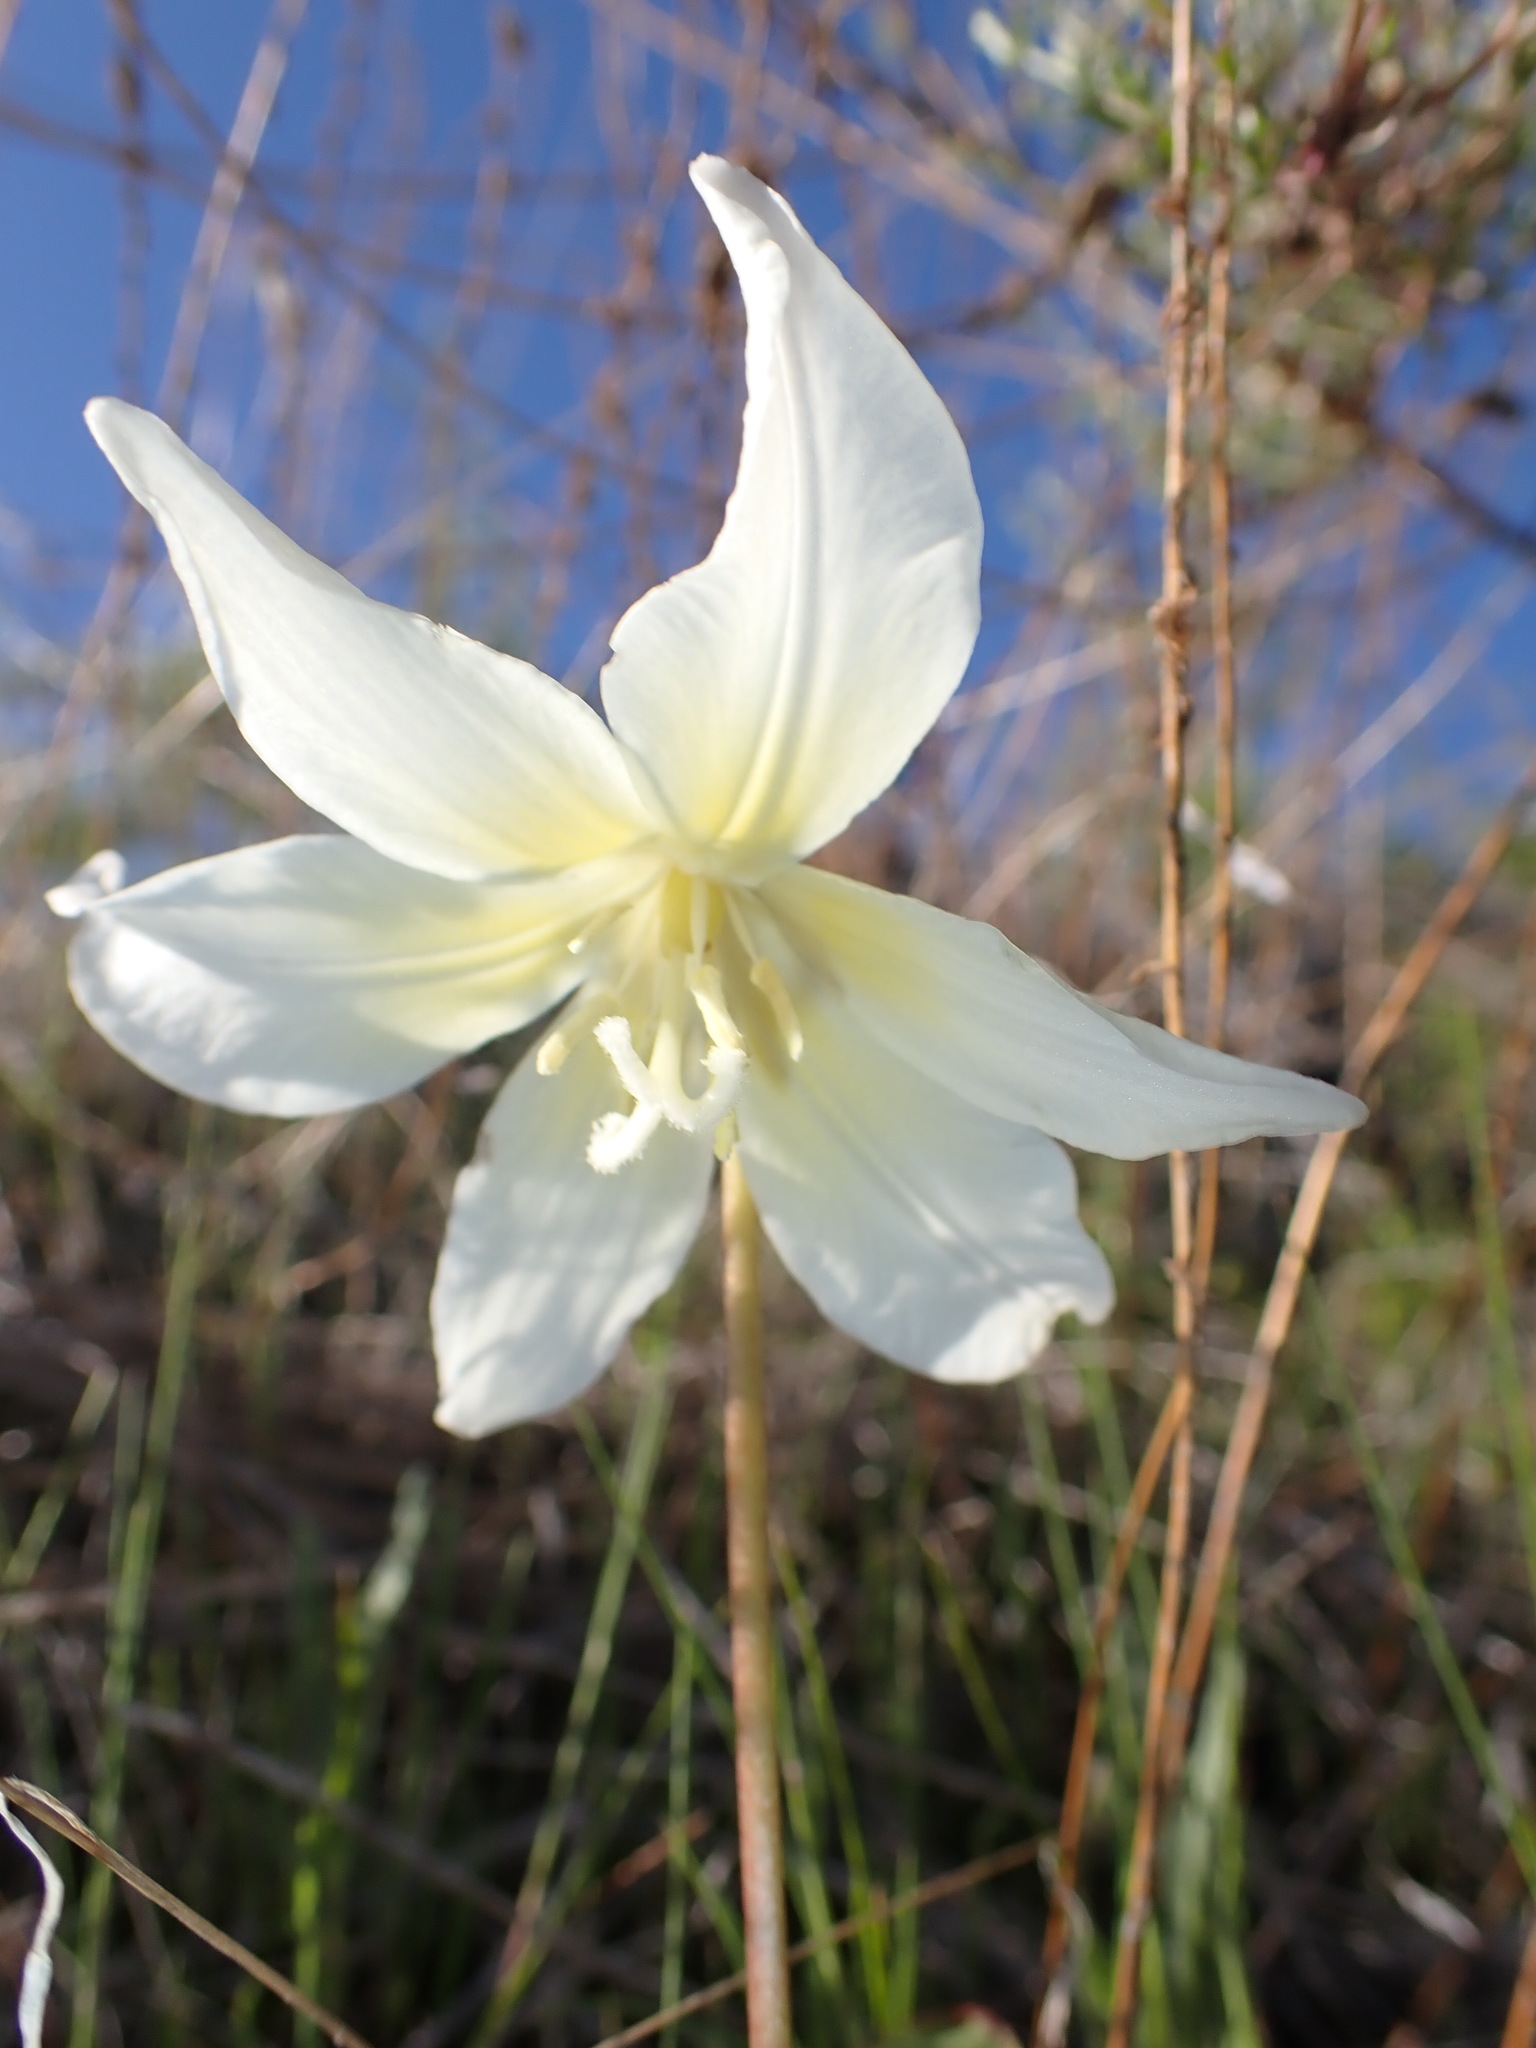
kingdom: Plantae
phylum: Tracheophyta
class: Liliopsida
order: Liliales
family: Liliaceae
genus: Erythronium
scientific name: Erythronium multiscapideum
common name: Sierra foothills fawn-lily
